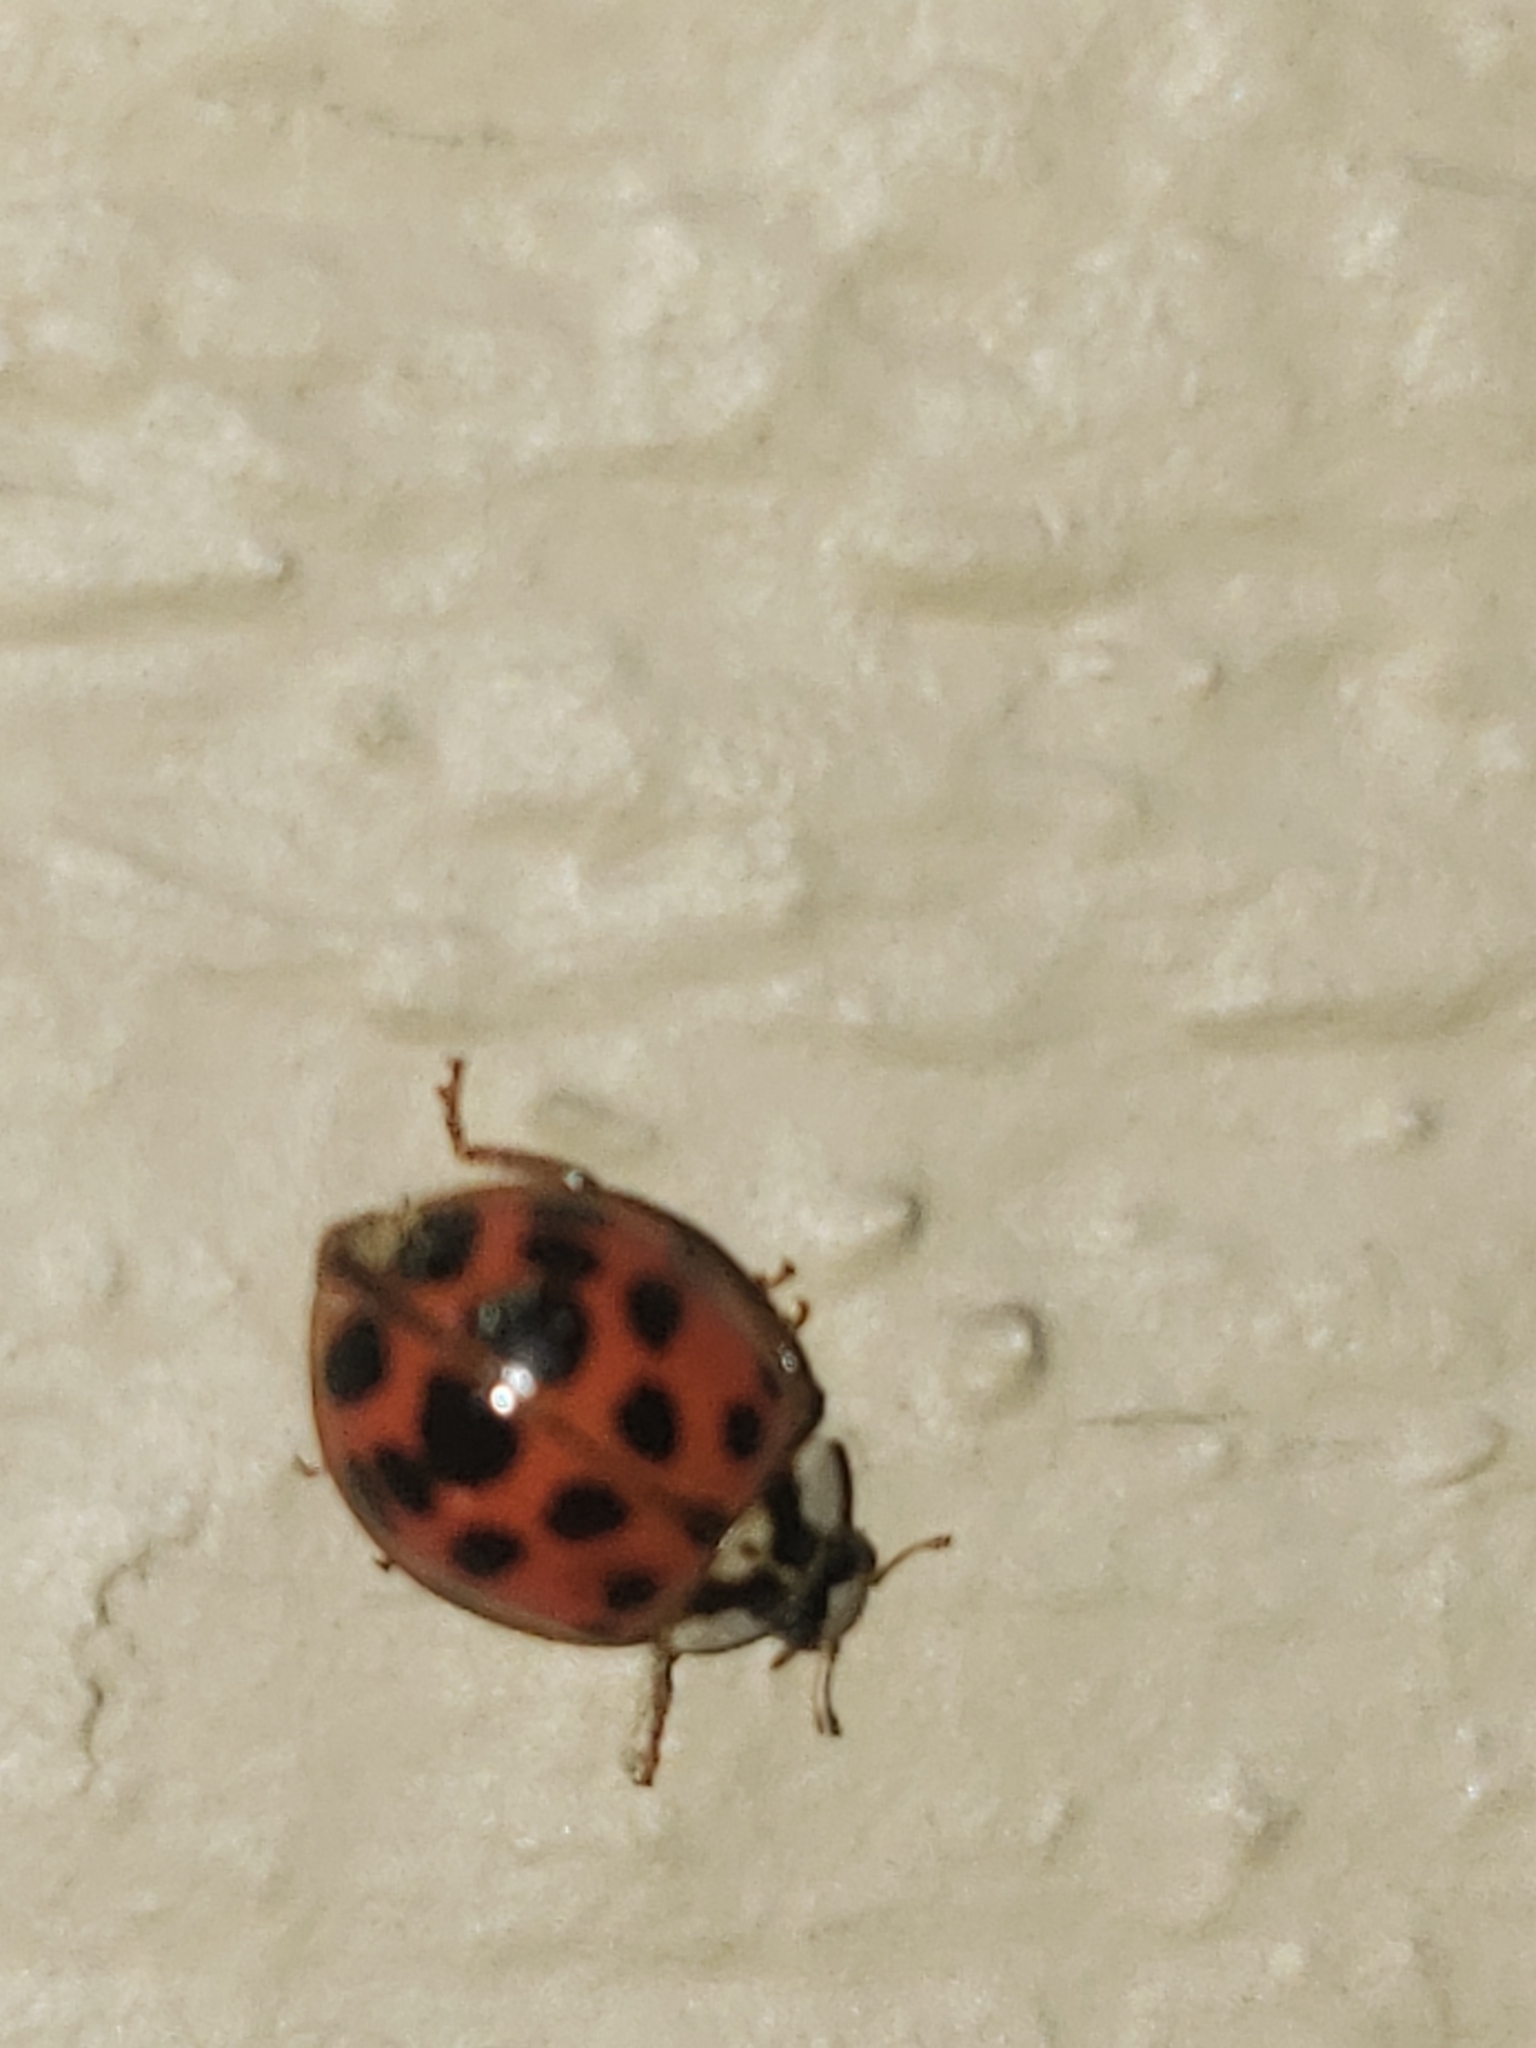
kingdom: Animalia
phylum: Arthropoda
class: Insecta
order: Coleoptera
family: Coccinellidae
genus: Harmonia
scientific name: Harmonia axyridis
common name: Harlequin ladybird
